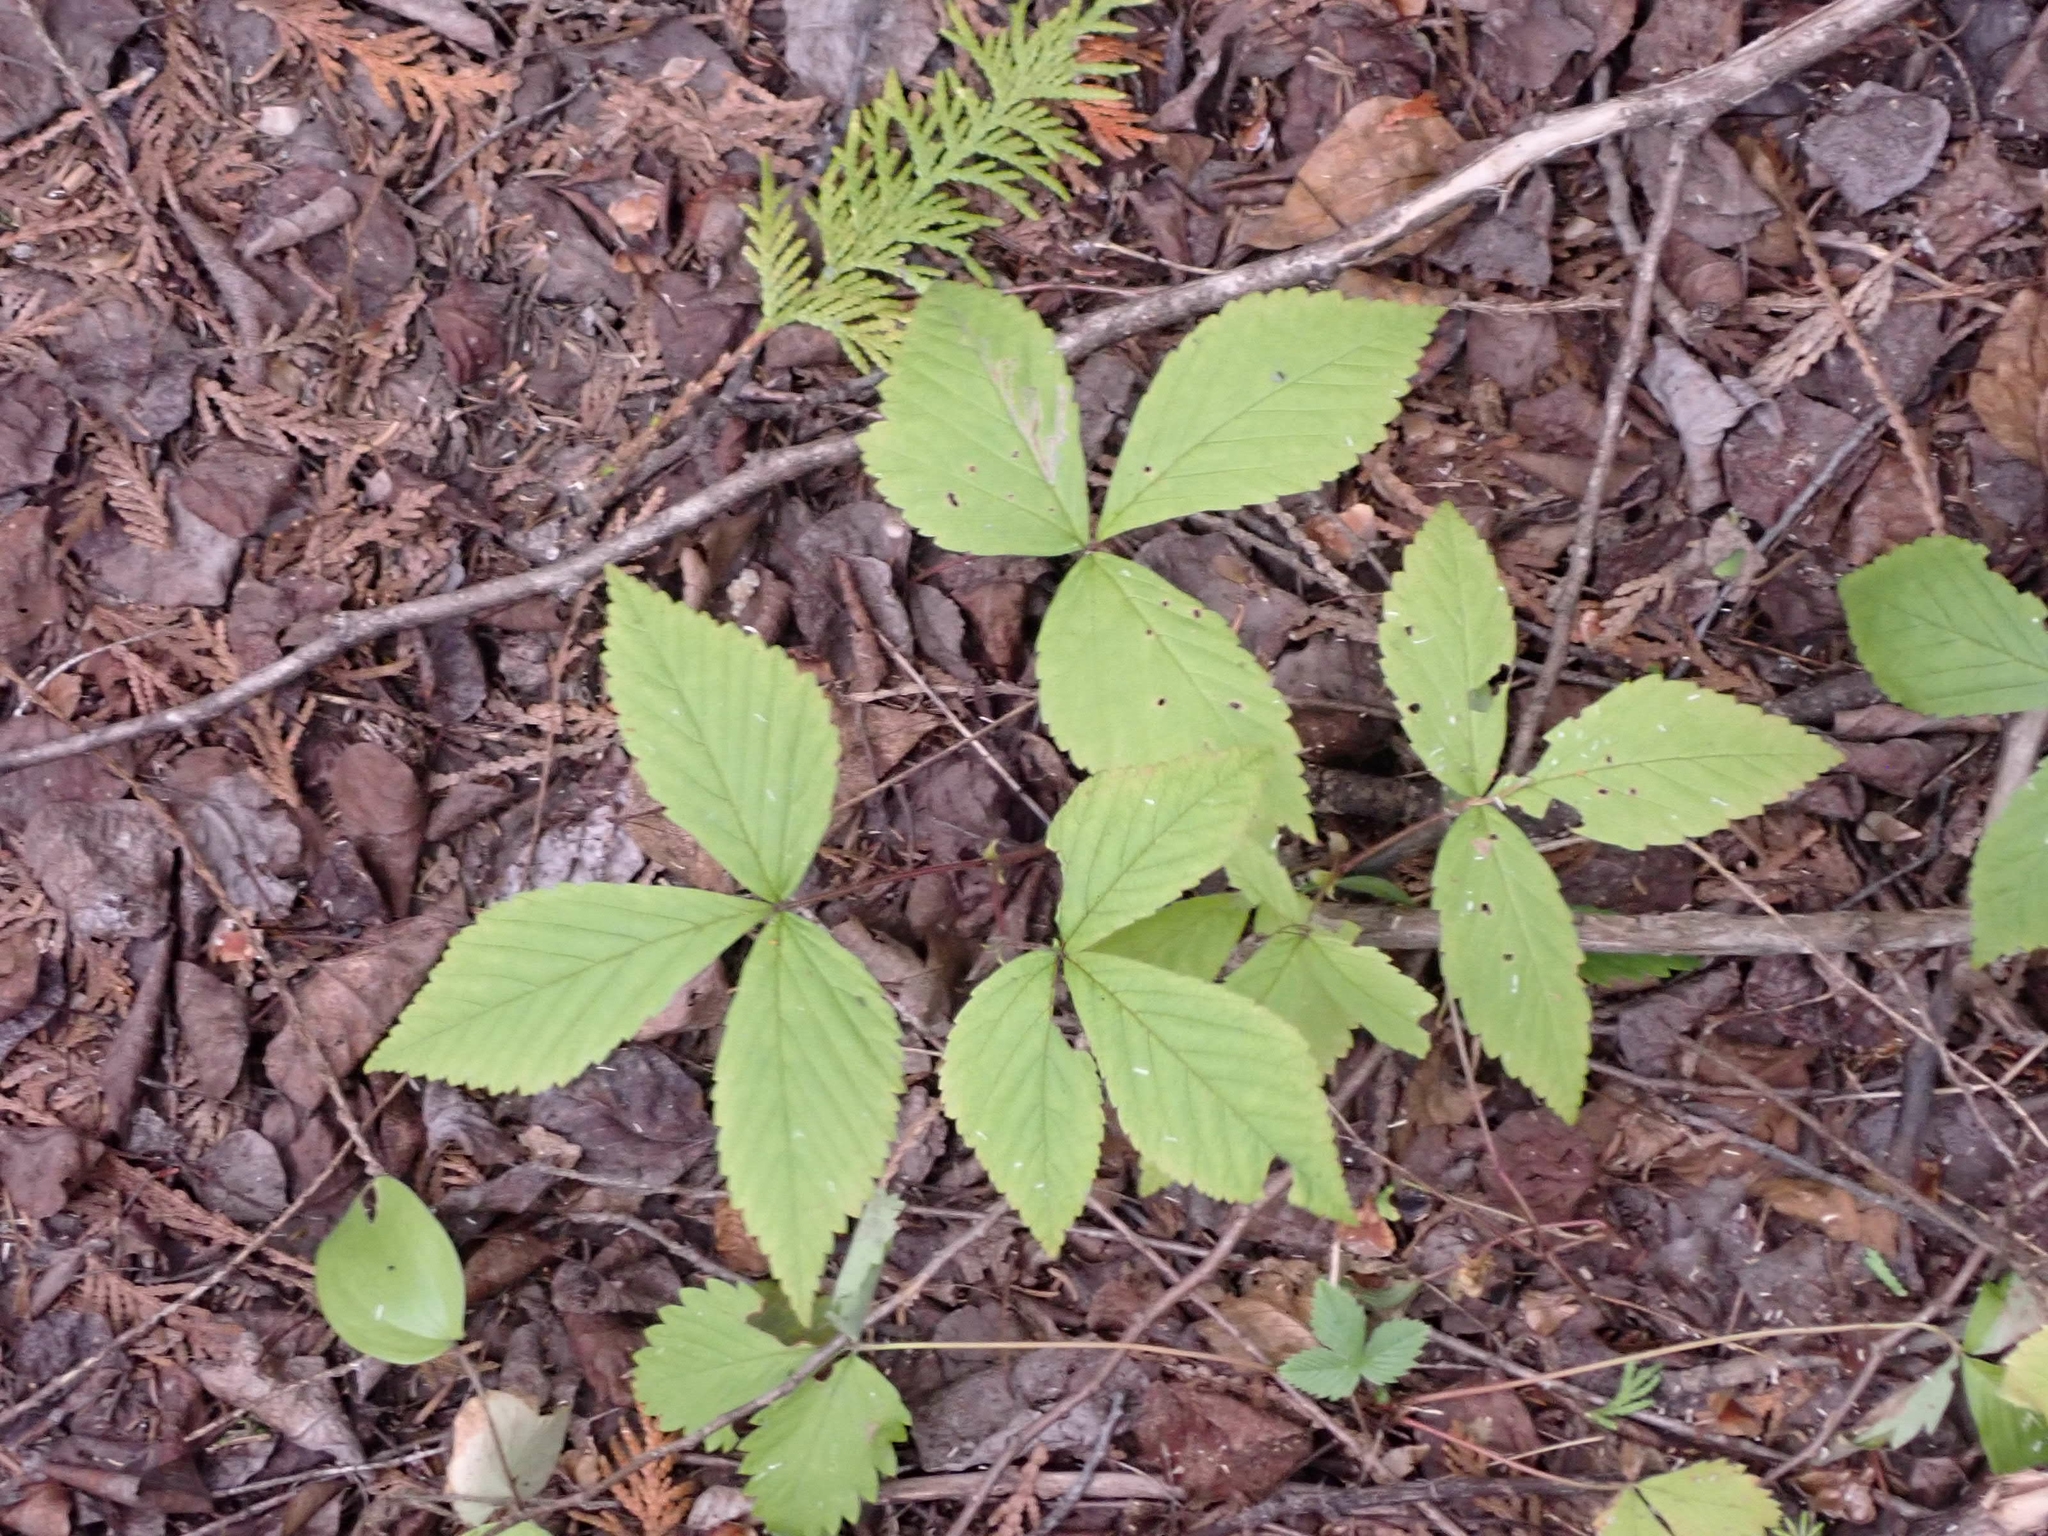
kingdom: Plantae
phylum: Tracheophyta
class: Magnoliopsida
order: Rosales
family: Rosaceae
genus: Rubus
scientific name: Rubus pubescens
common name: Dwarf raspberry
